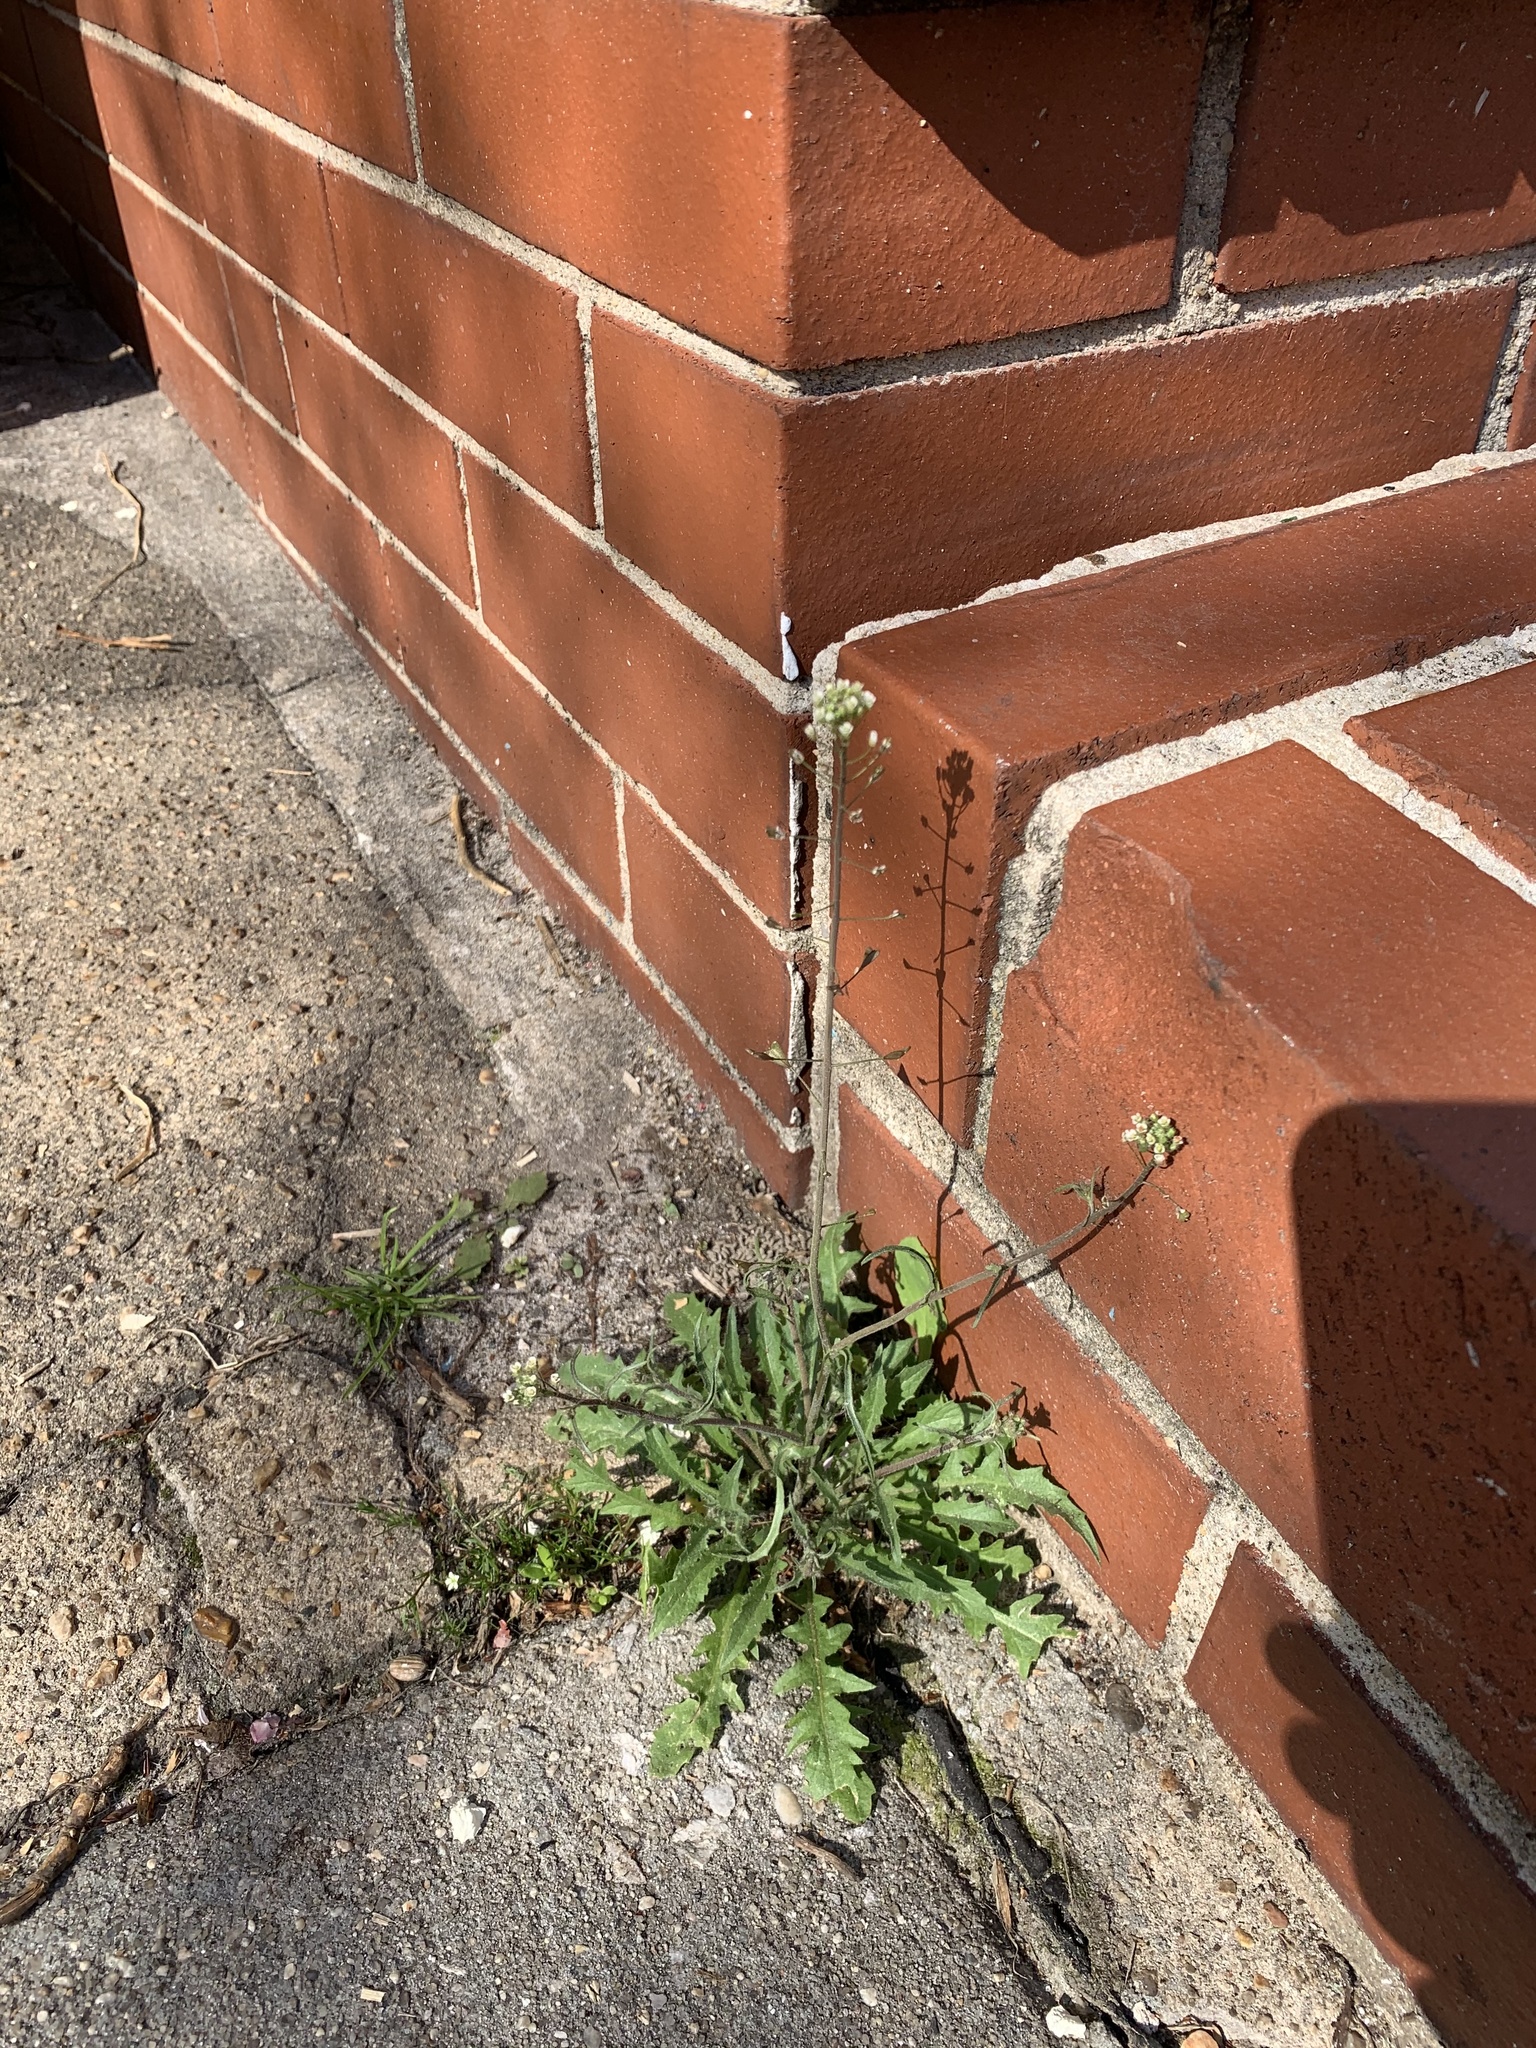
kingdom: Plantae
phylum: Tracheophyta
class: Magnoliopsida
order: Brassicales
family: Brassicaceae
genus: Capsella
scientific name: Capsella bursa-pastoris
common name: Shepherd's purse
